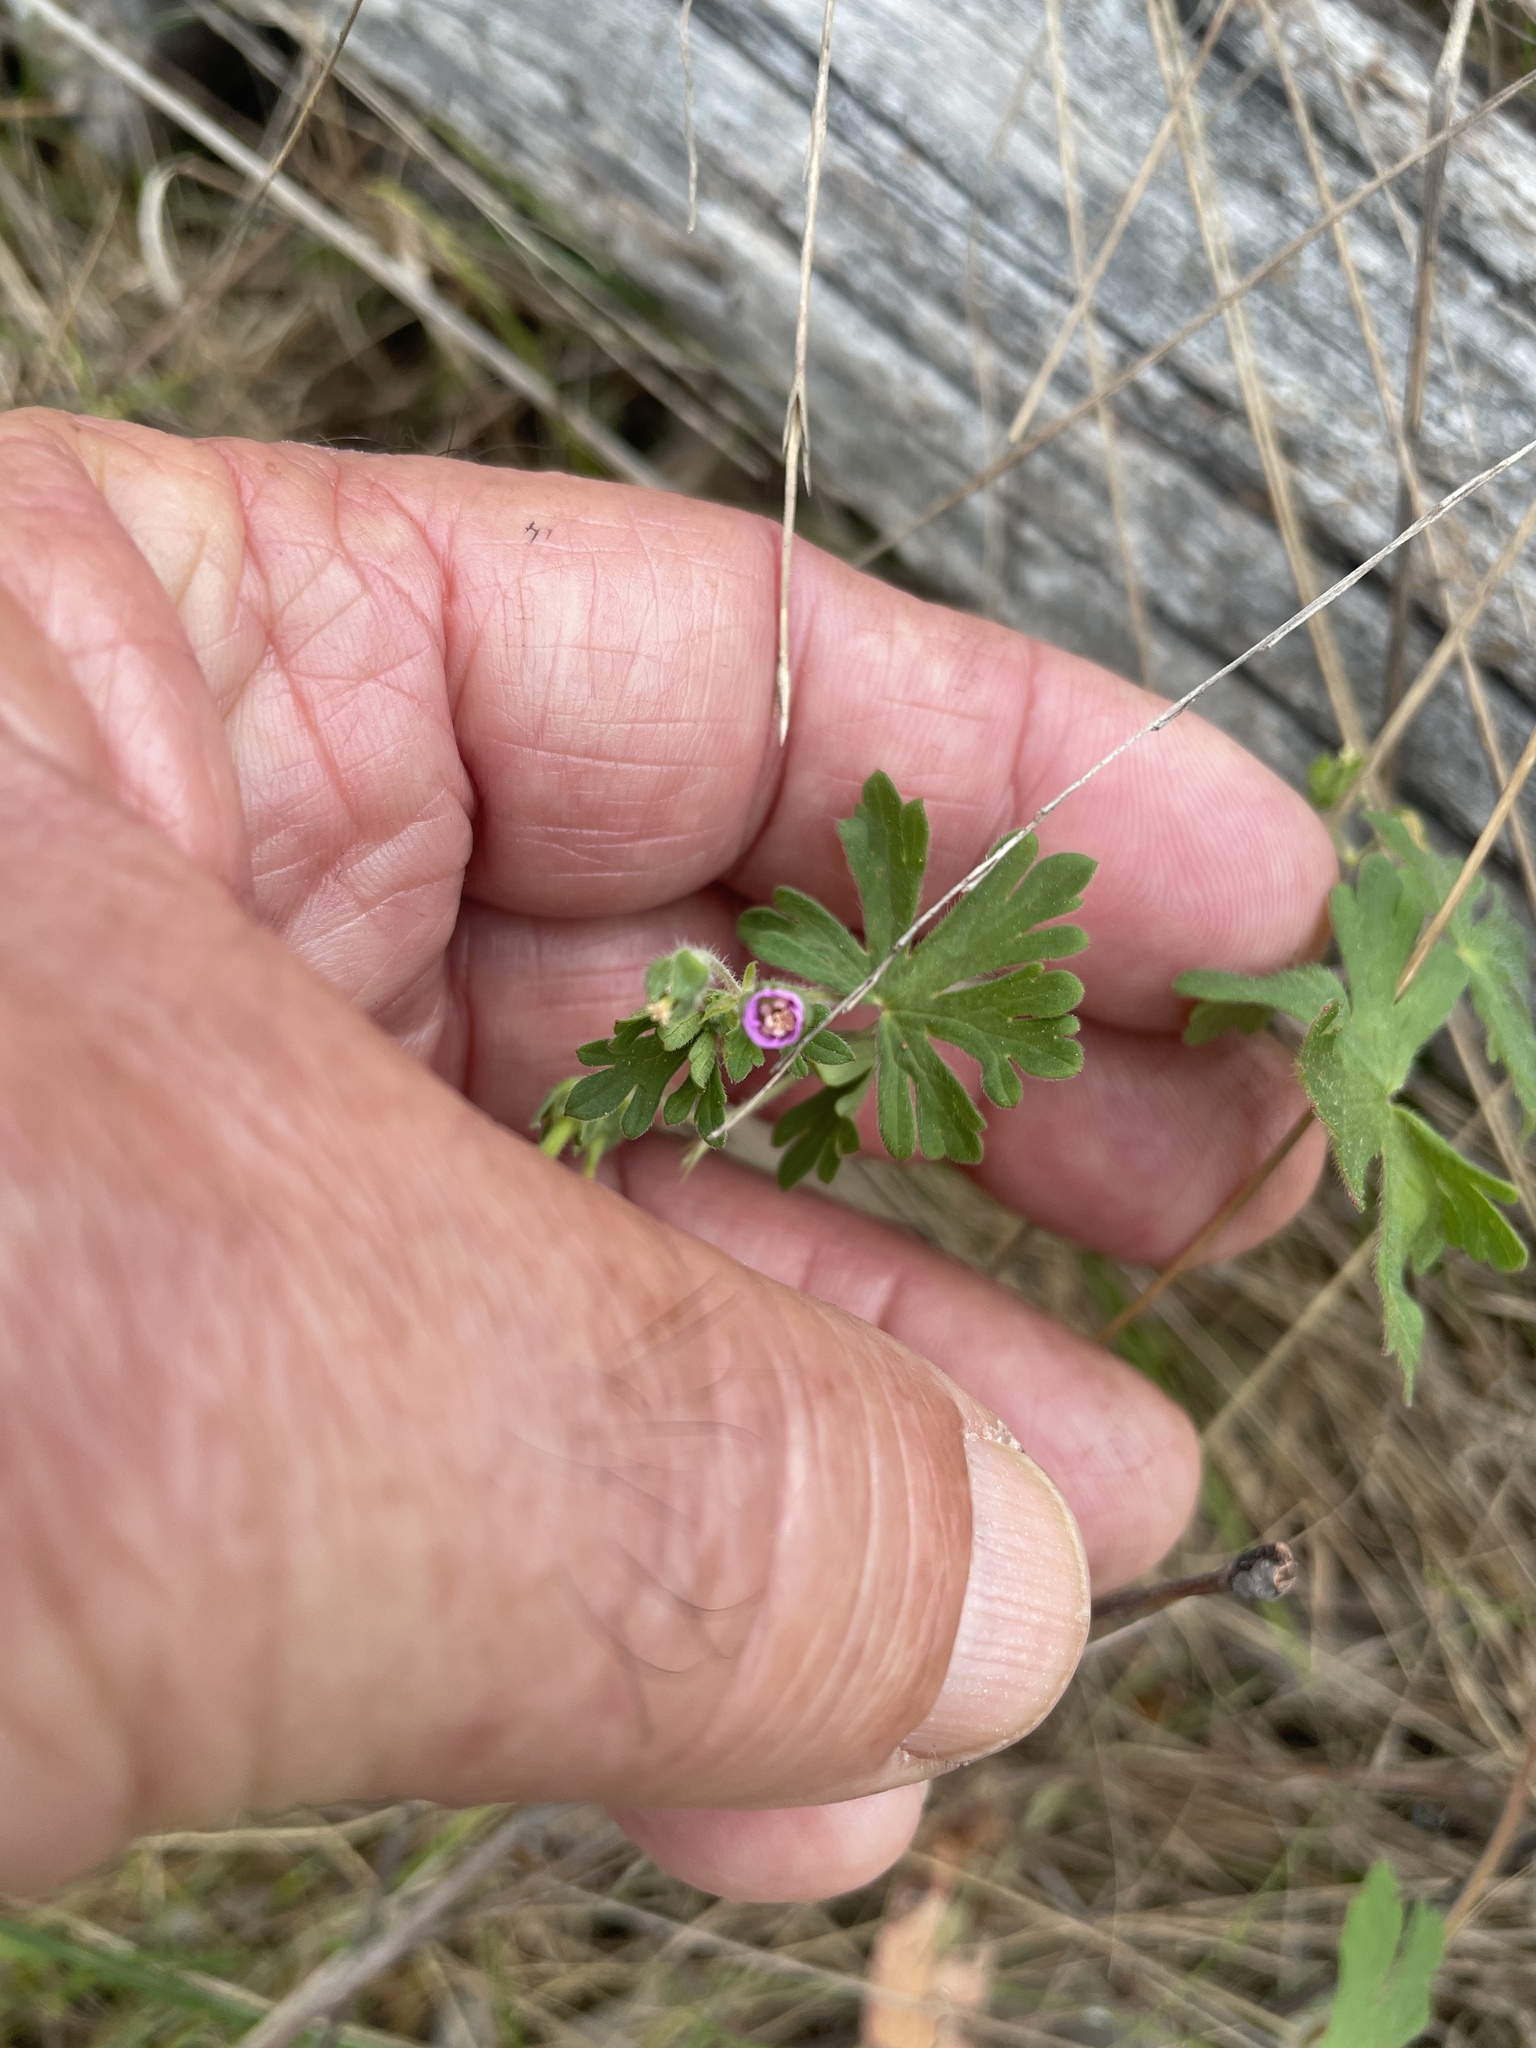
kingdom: Plantae
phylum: Tracheophyta
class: Magnoliopsida
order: Geraniales
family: Geraniaceae
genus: Geranium
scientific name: Geranium
